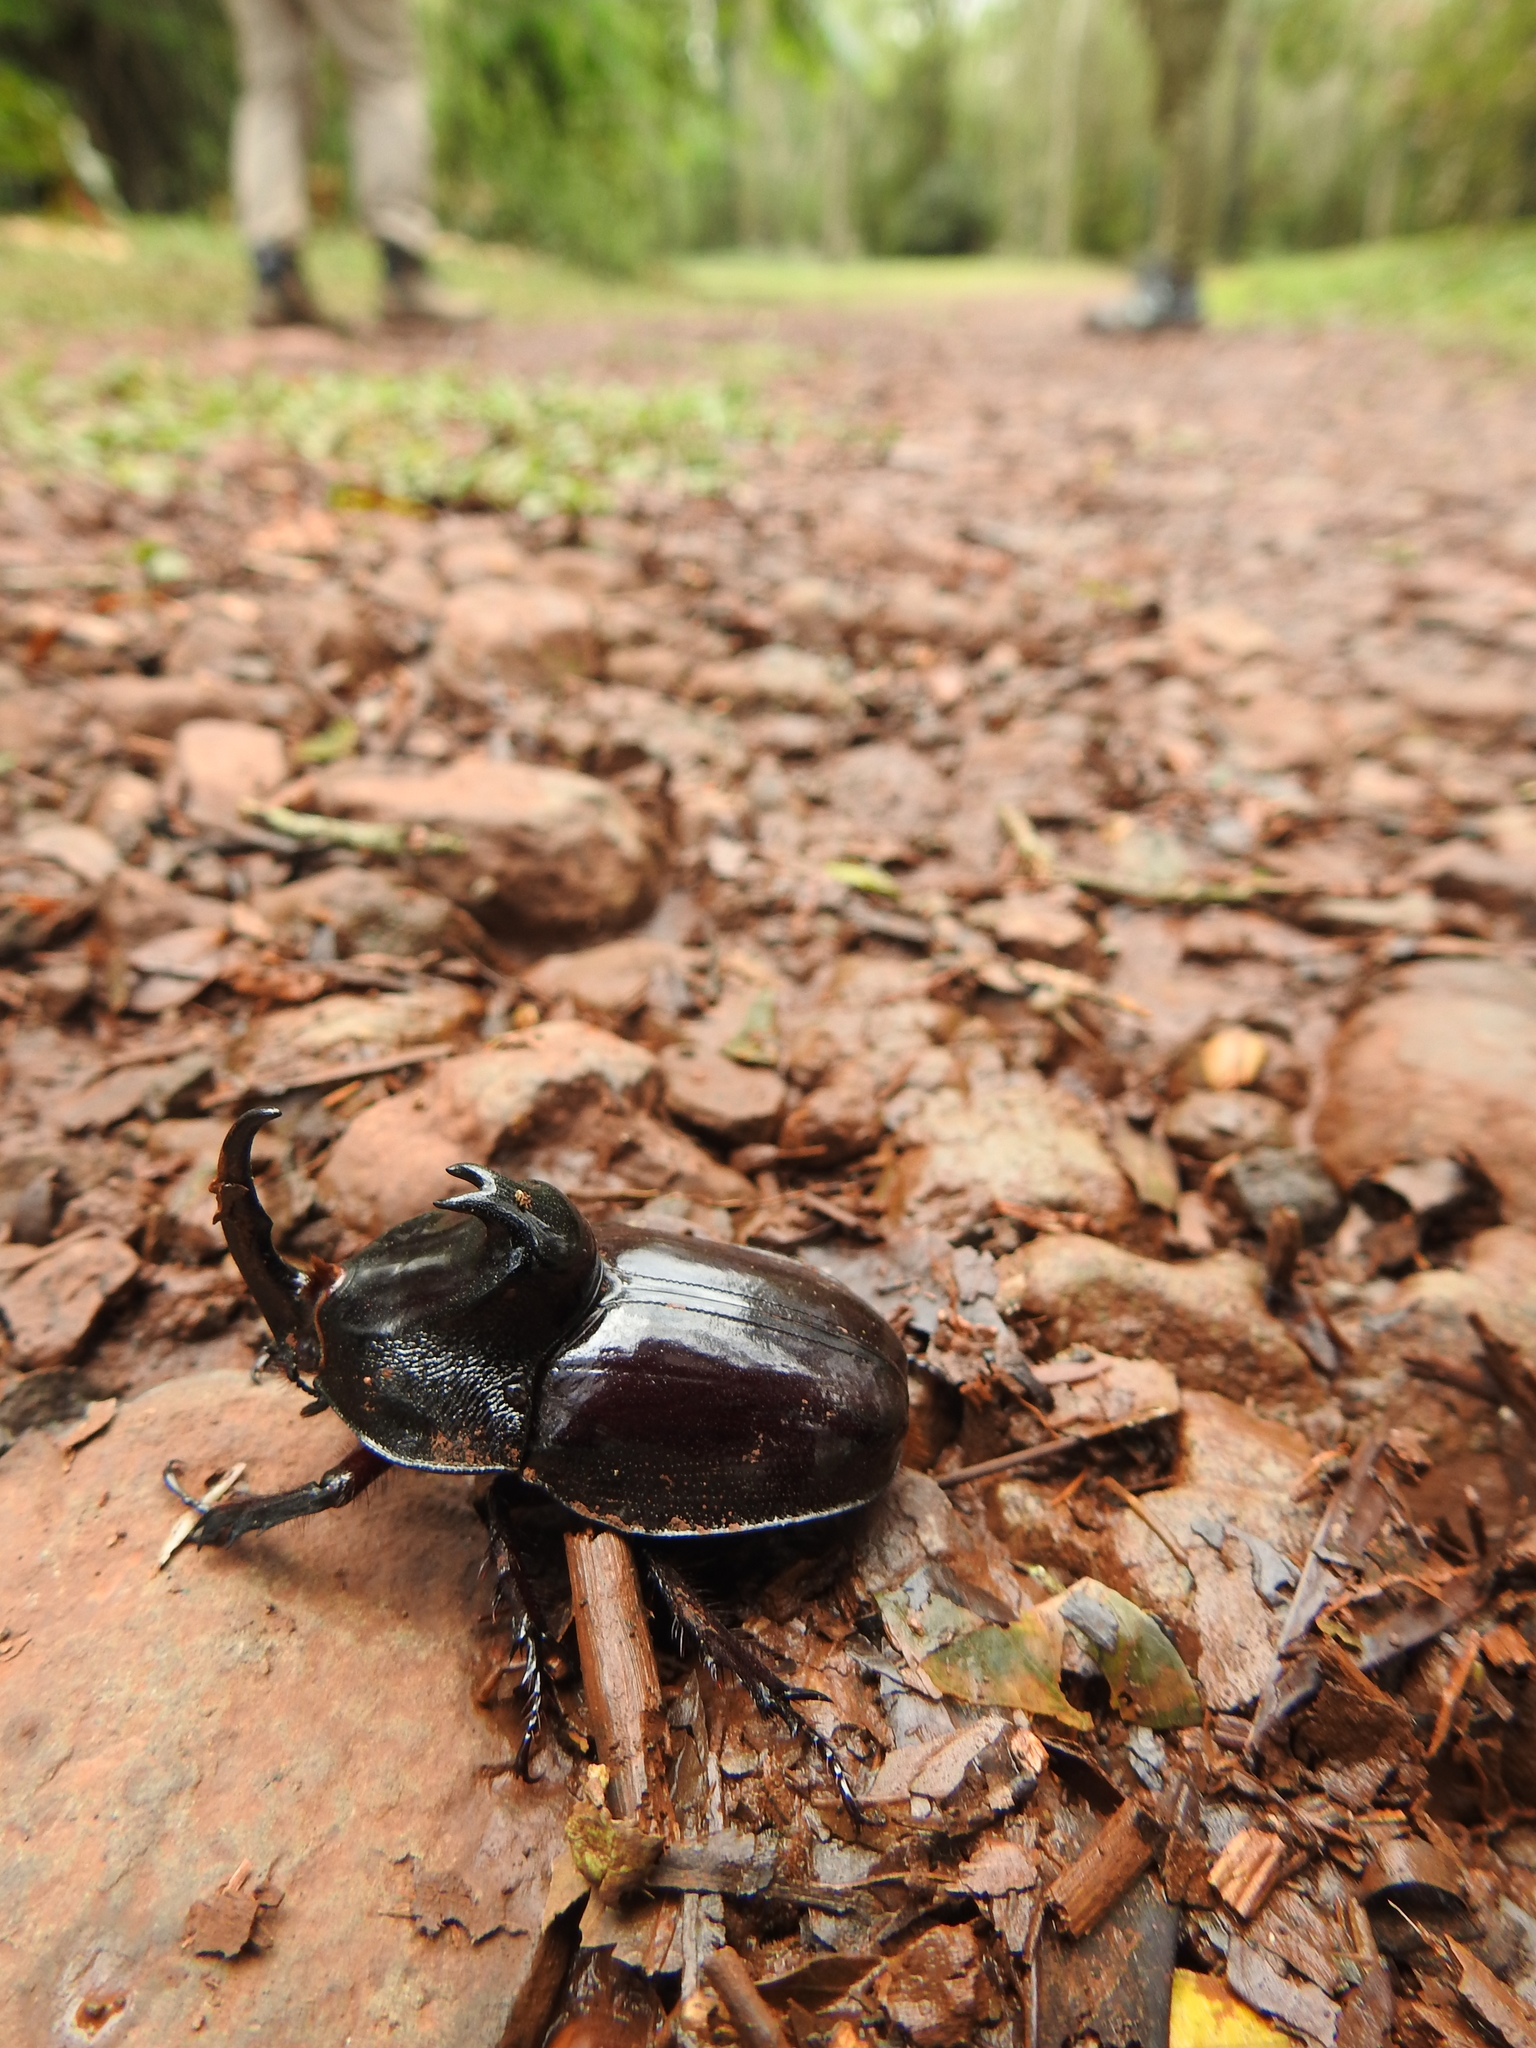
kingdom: Animalia
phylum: Arthropoda
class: Insecta
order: Coleoptera
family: Scarabaeidae
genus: Enema
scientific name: Enema pan
